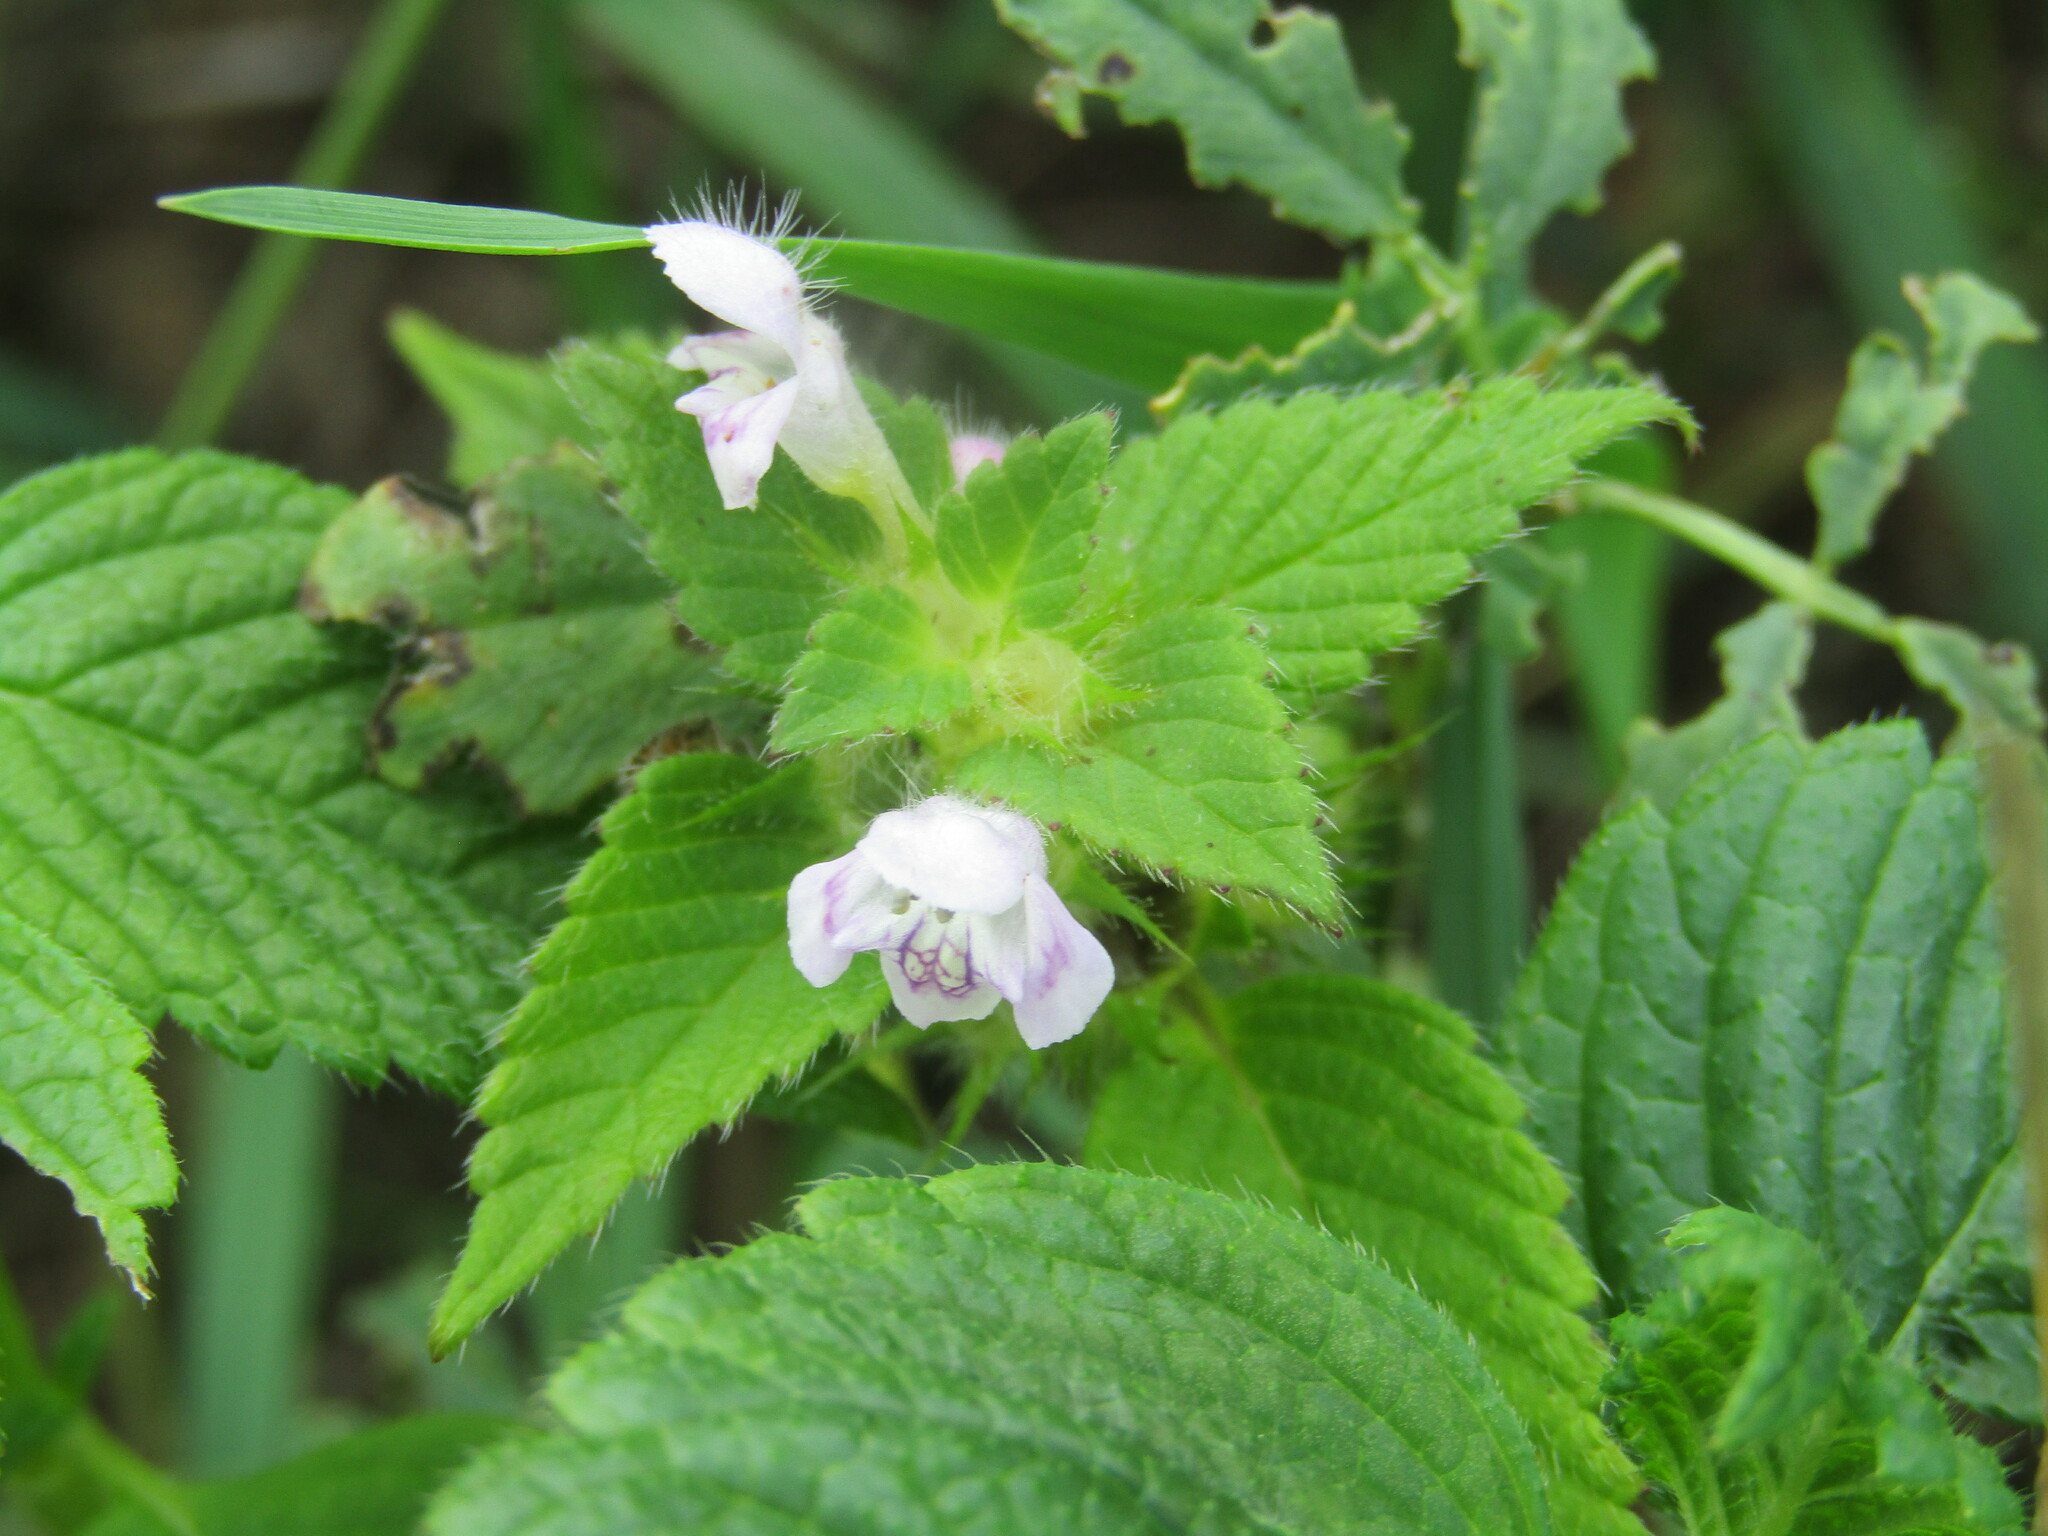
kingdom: Plantae
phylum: Tracheophyta
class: Magnoliopsida
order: Lamiales
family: Lamiaceae
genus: Galeopsis
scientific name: Galeopsis tetrahit
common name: Common hemp-nettle
